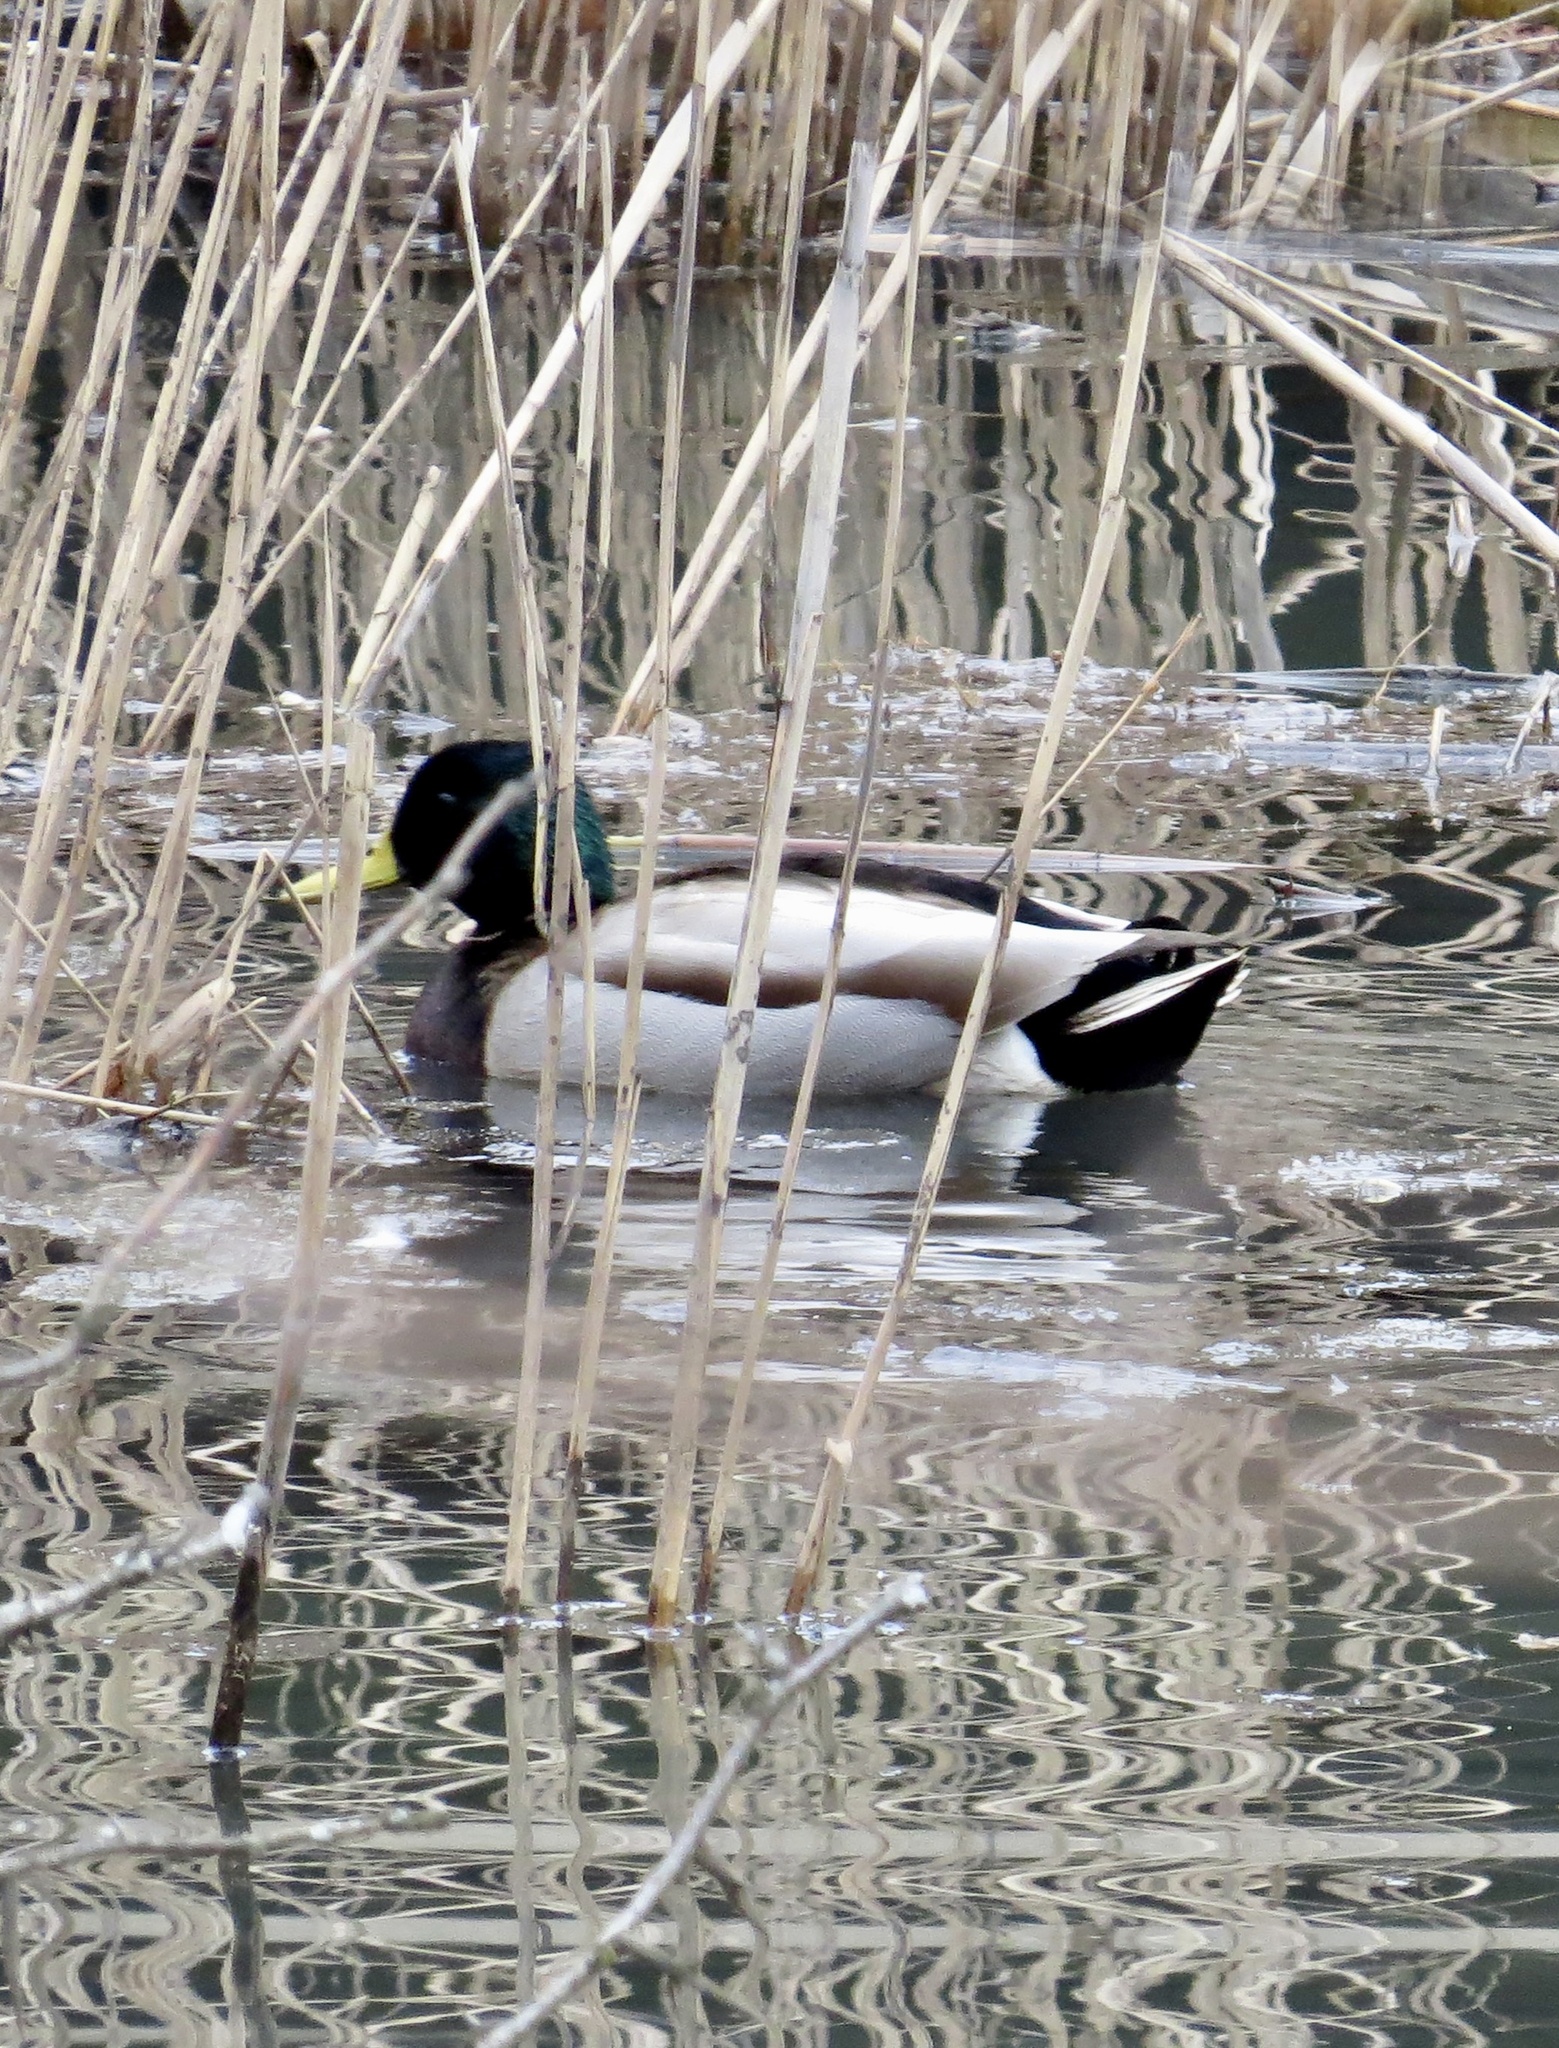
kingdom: Animalia
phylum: Chordata
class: Aves
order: Anseriformes
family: Anatidae
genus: Anas
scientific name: Anas platyrhynchos
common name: Mallard
